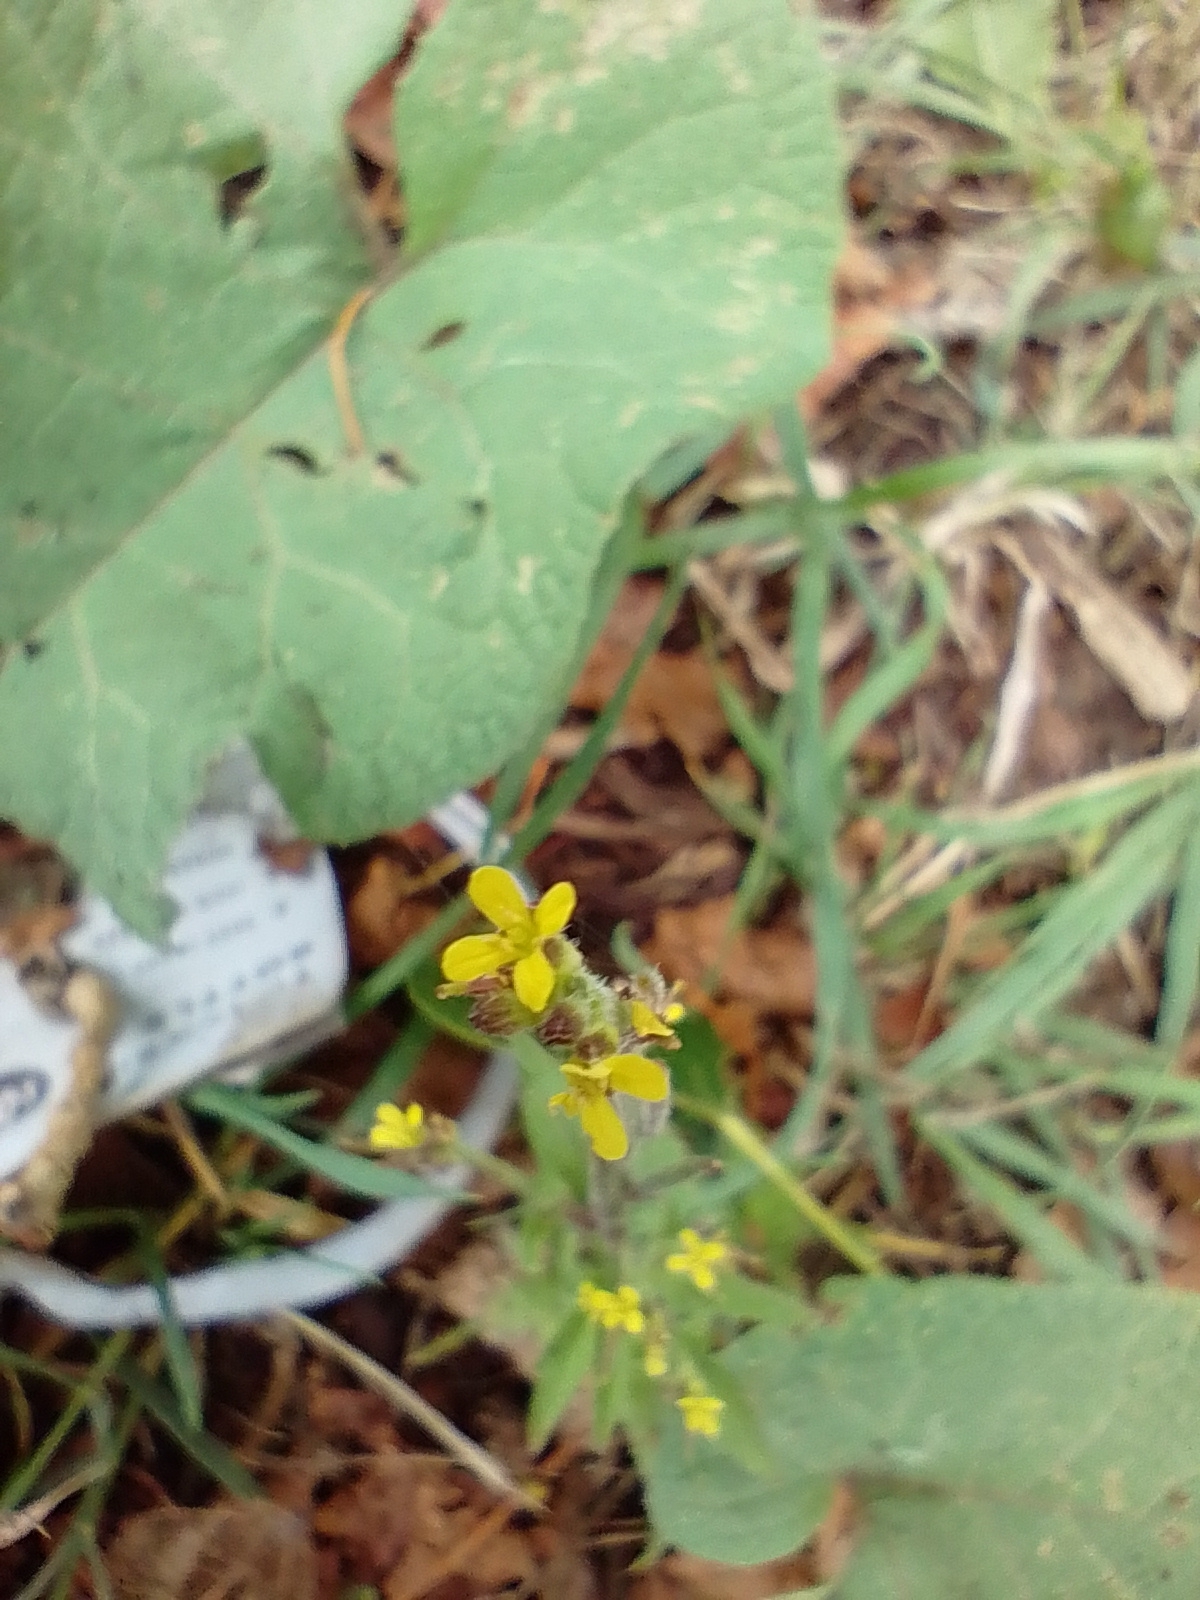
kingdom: Plantae
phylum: Tracheophyta
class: Magnoliopsida
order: Brassicales
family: Brassicaceae
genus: Sisymbrium
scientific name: Sisymbrium officinale
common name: Hedge mustard
